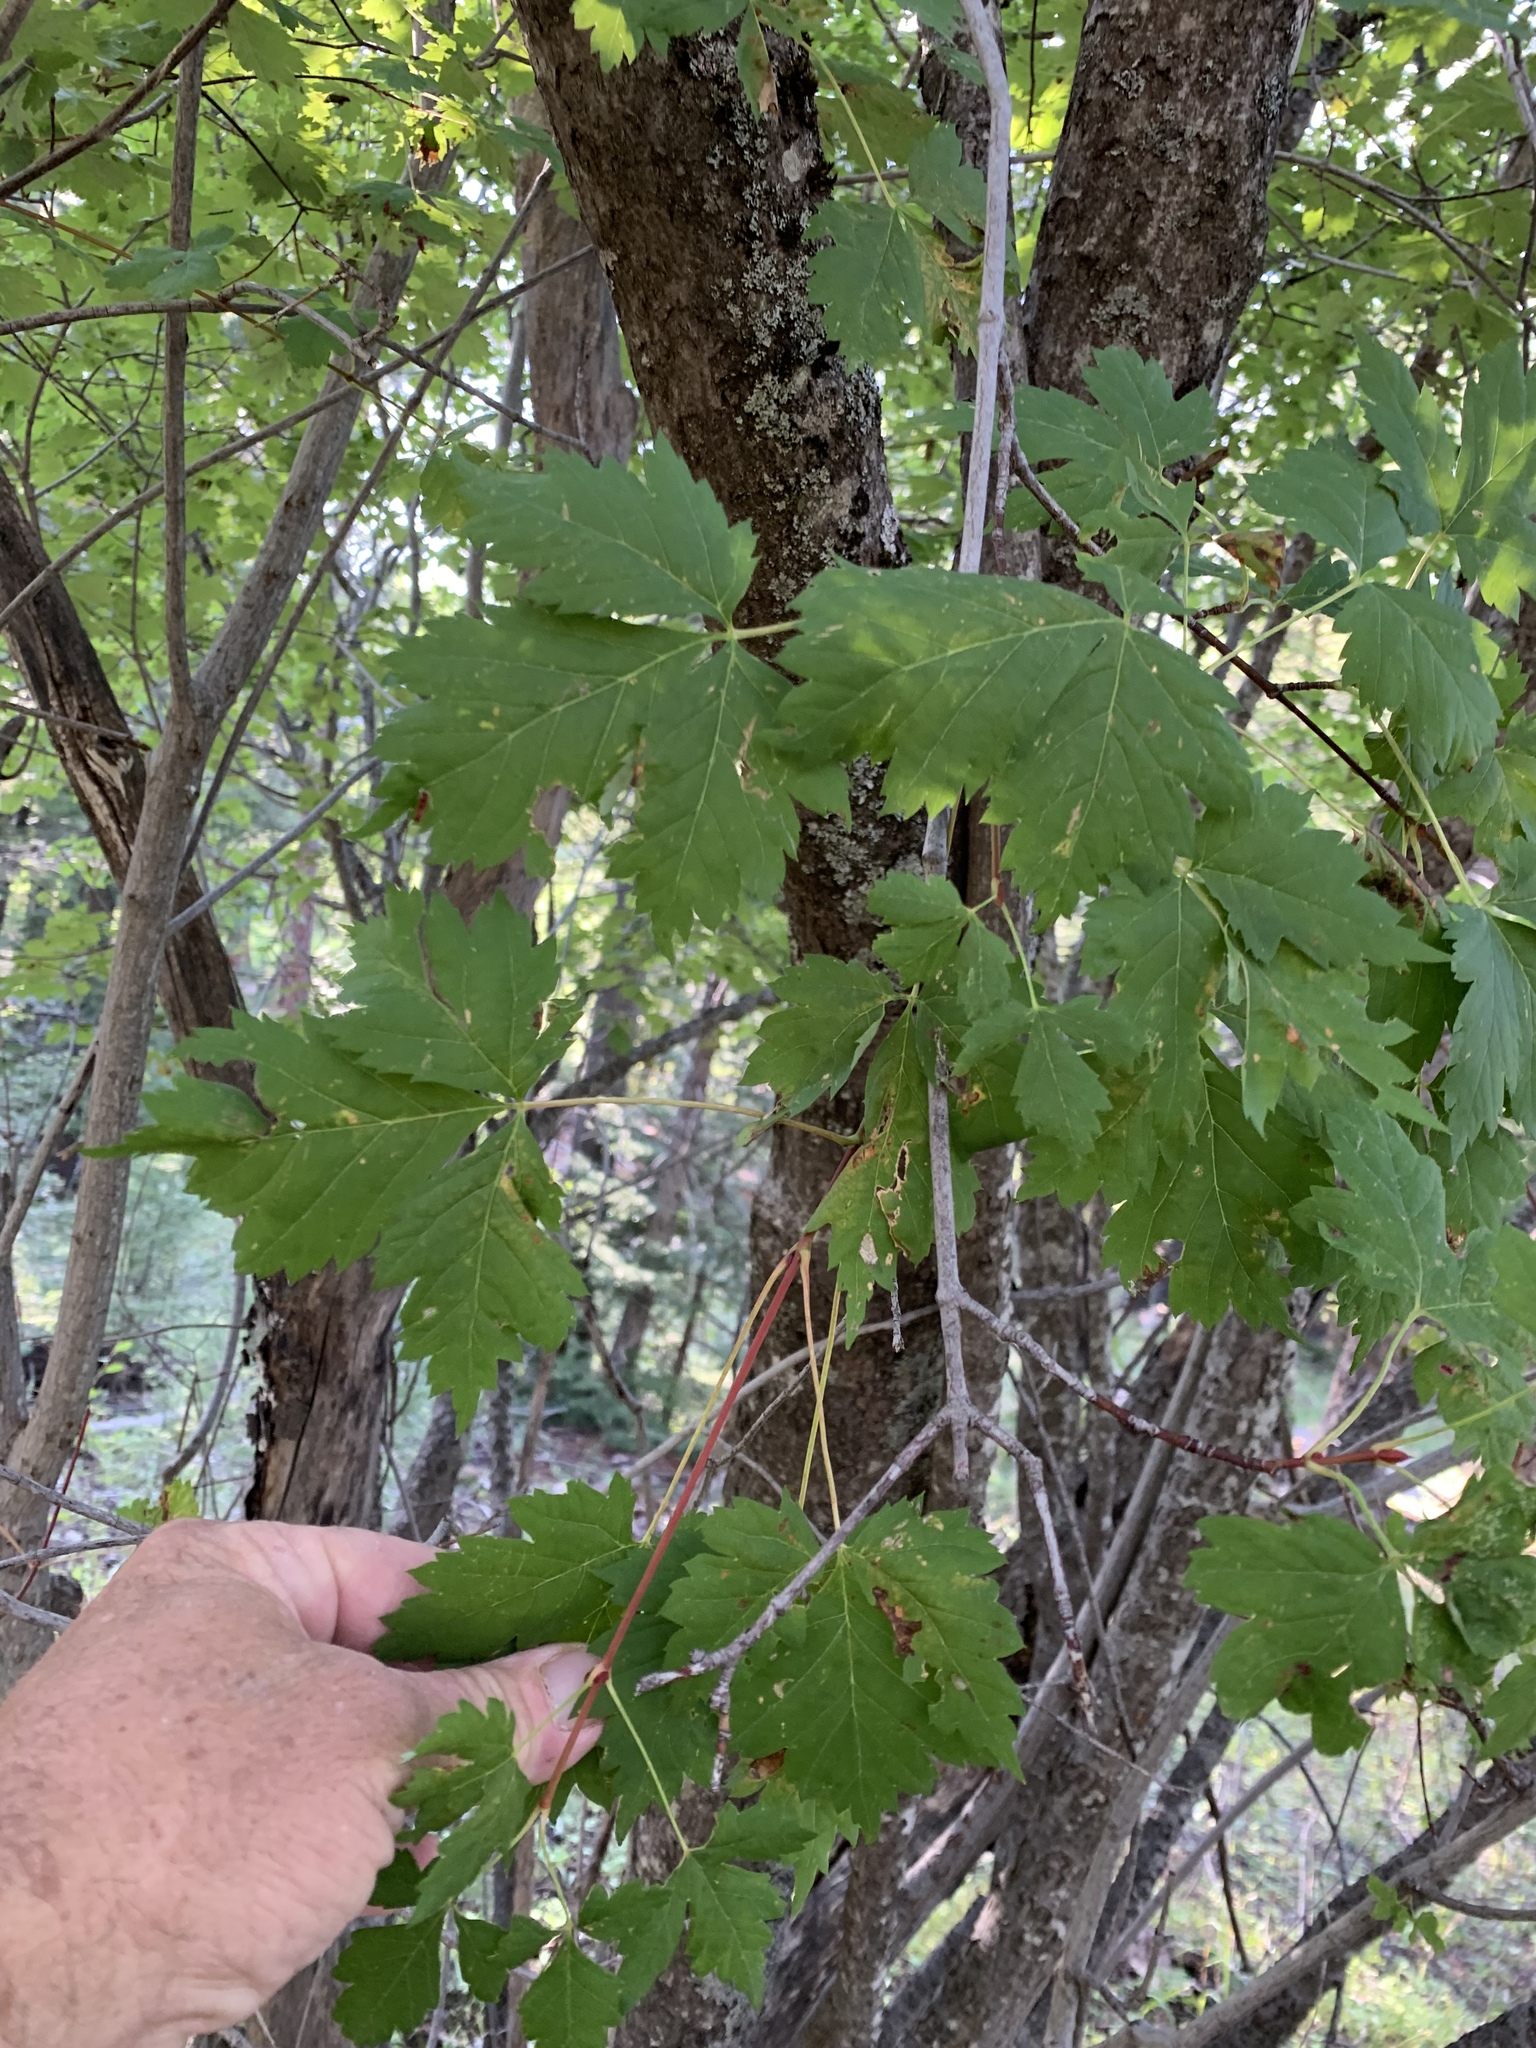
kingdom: Plantae
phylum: Tracheophyta
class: Magnoliopsida
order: Sapindales
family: Sapindaceae
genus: Acer
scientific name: Acer negundo
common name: Ashleaf maple
